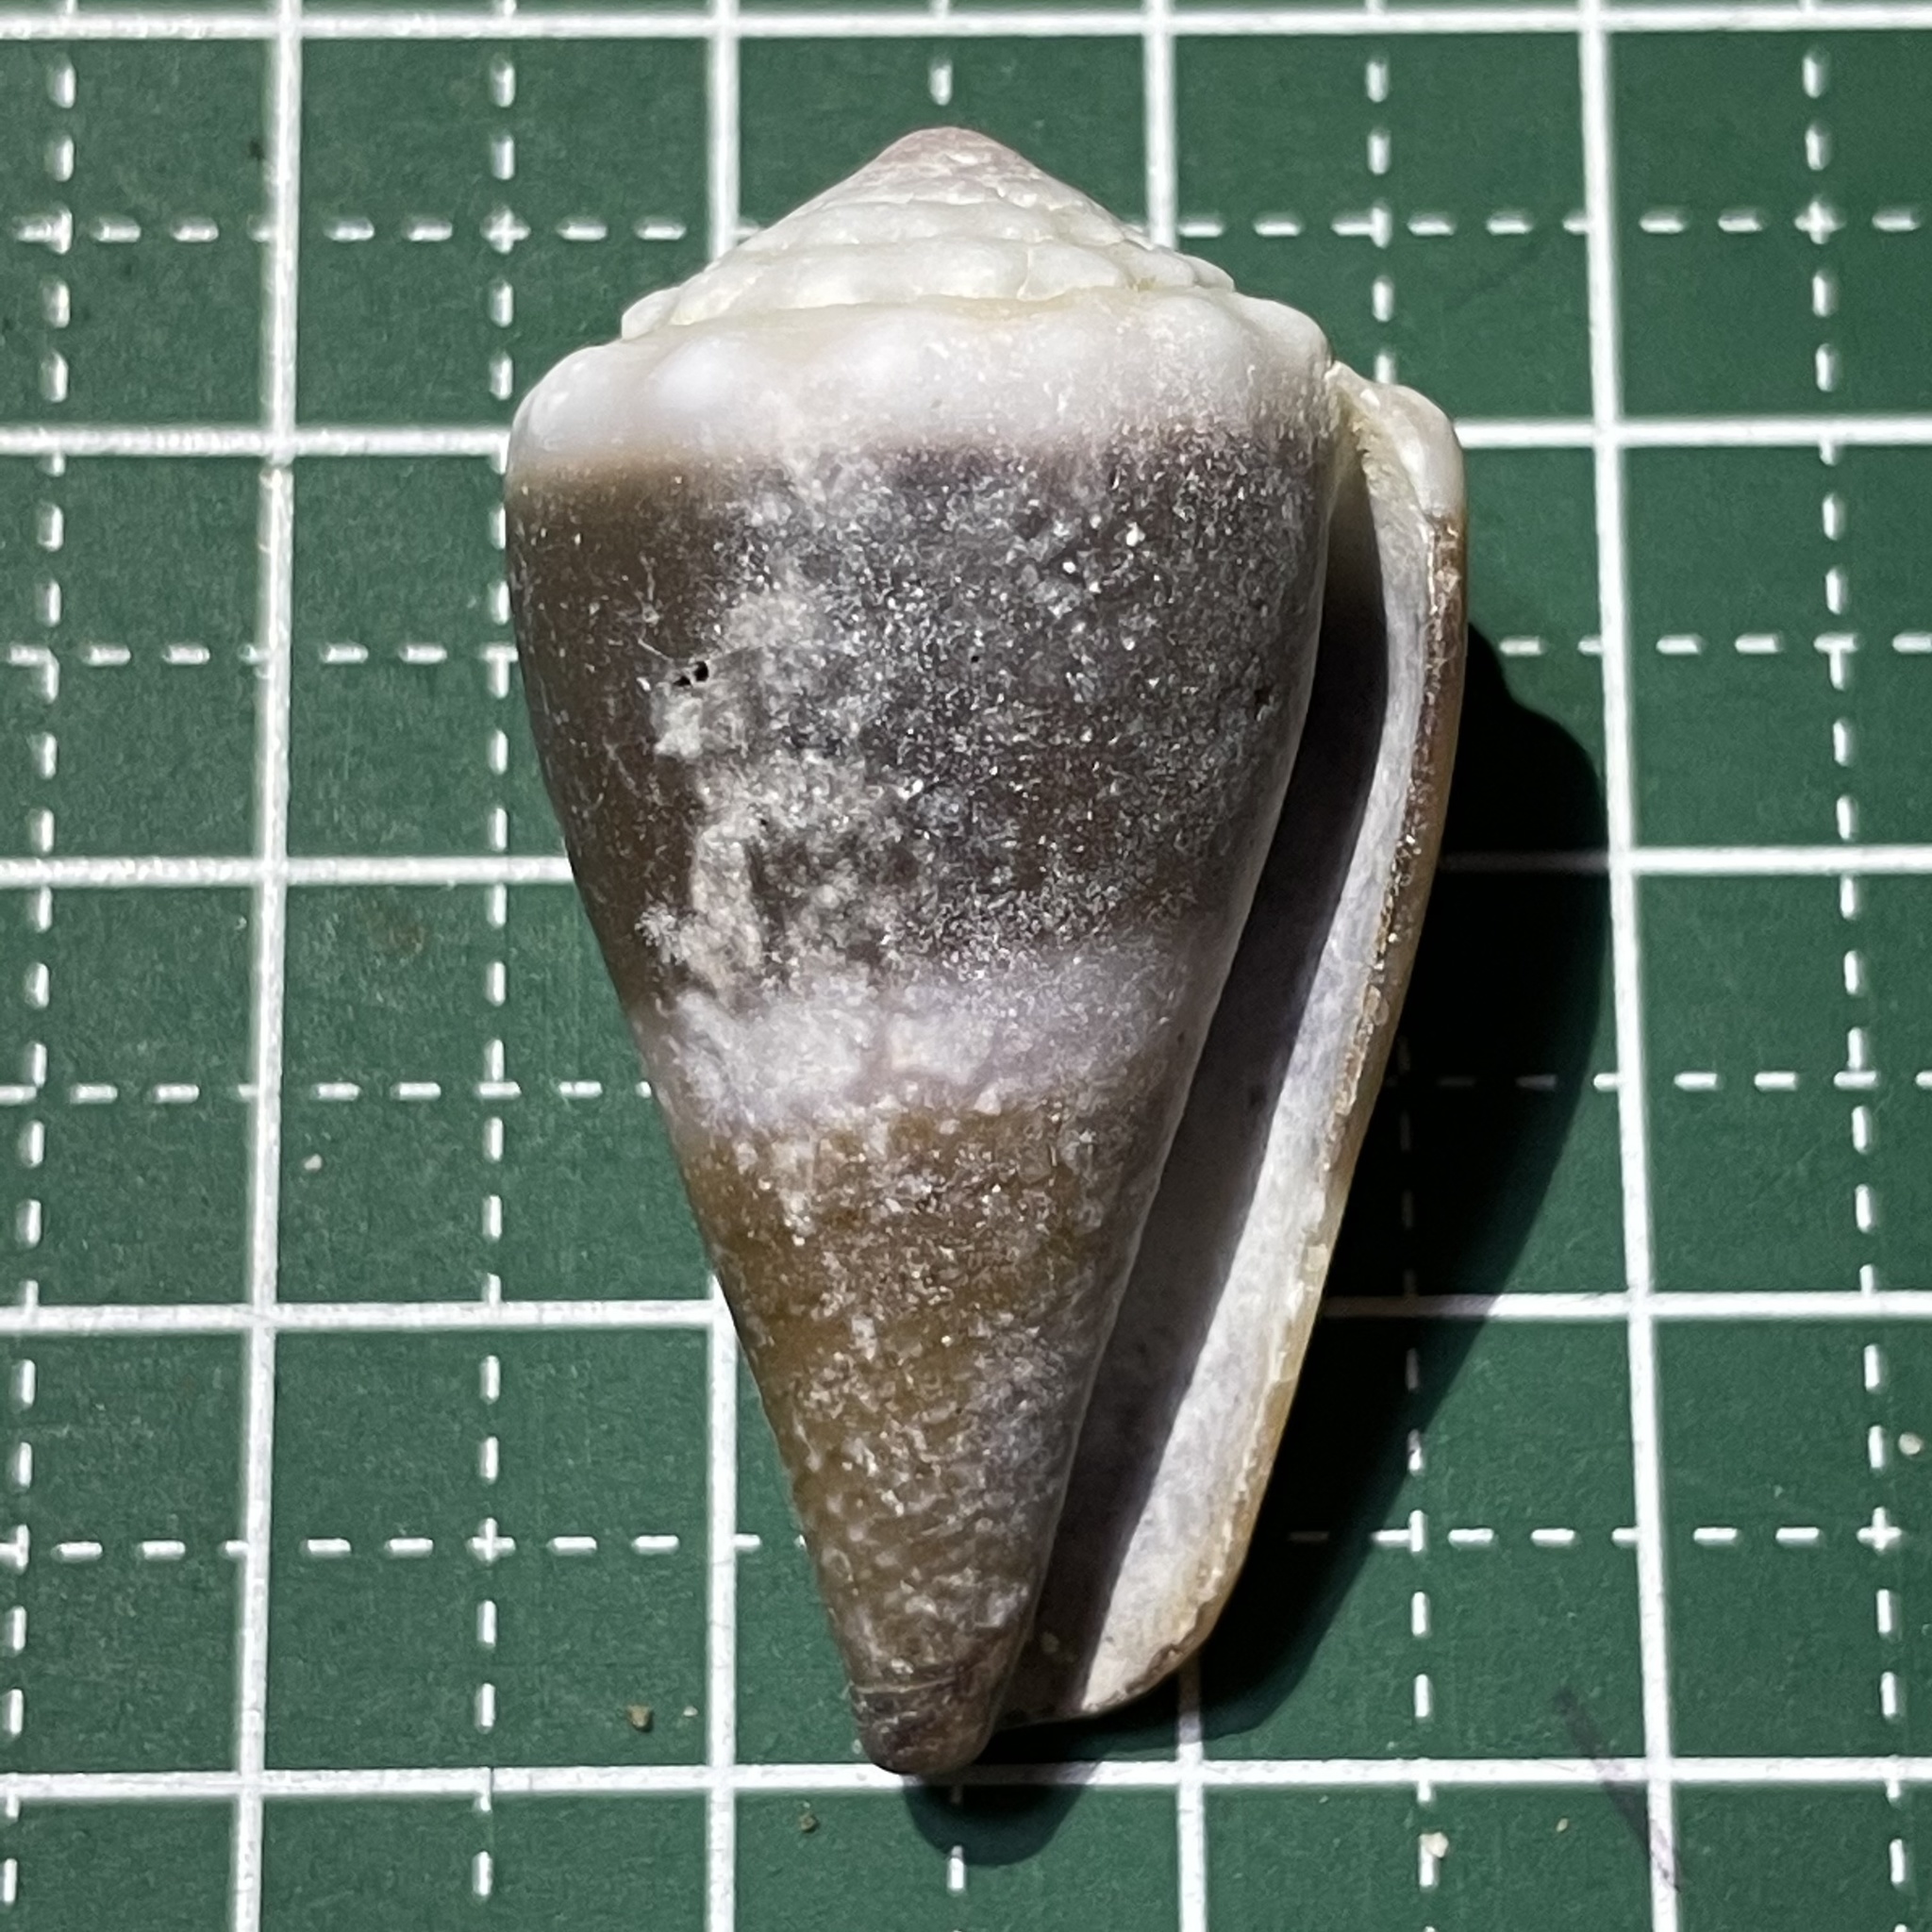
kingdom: Animalia
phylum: Mollusca
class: Gastropoda
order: Neogastropoda
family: Conidae
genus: Conus
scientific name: Conus lividus
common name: Livid cone
